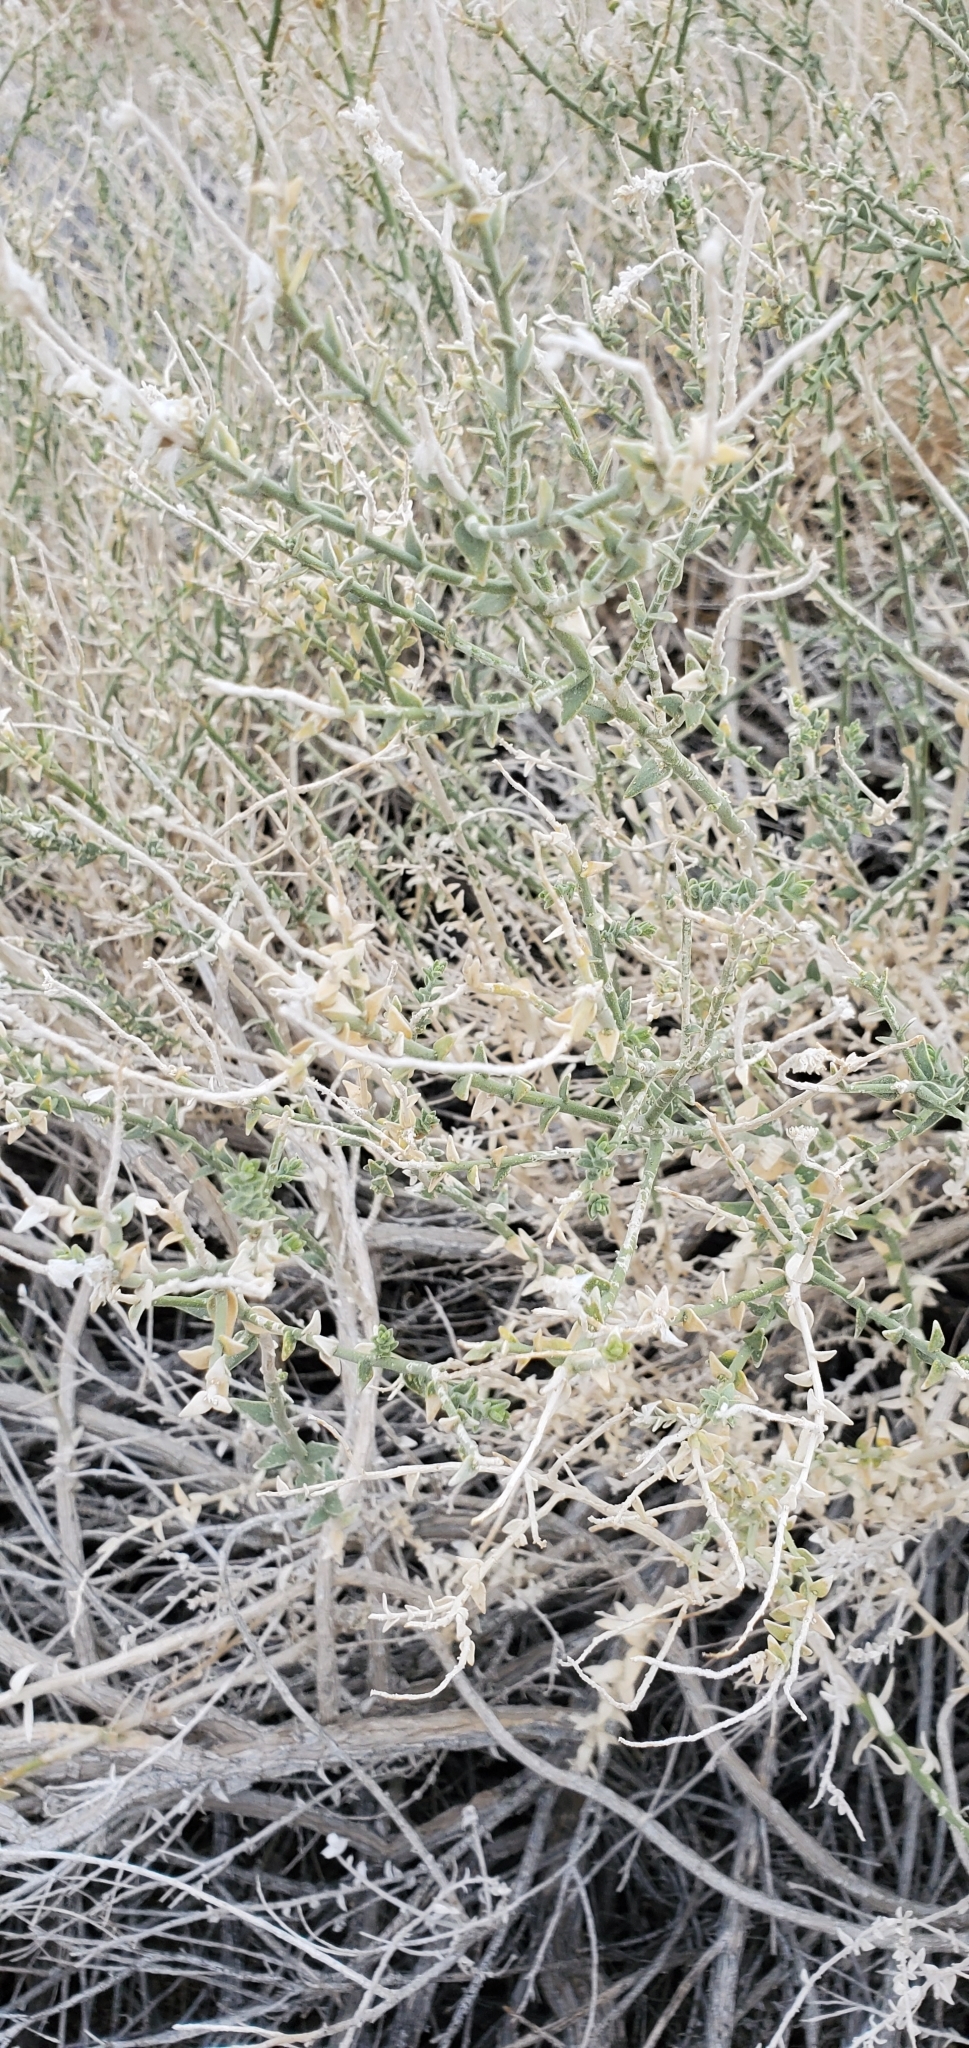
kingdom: Plantae
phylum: Tracheophyta
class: Magnoliopsida
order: Cornales
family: Loasaceae
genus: Petalonyx
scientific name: Petalonyx thurberi
